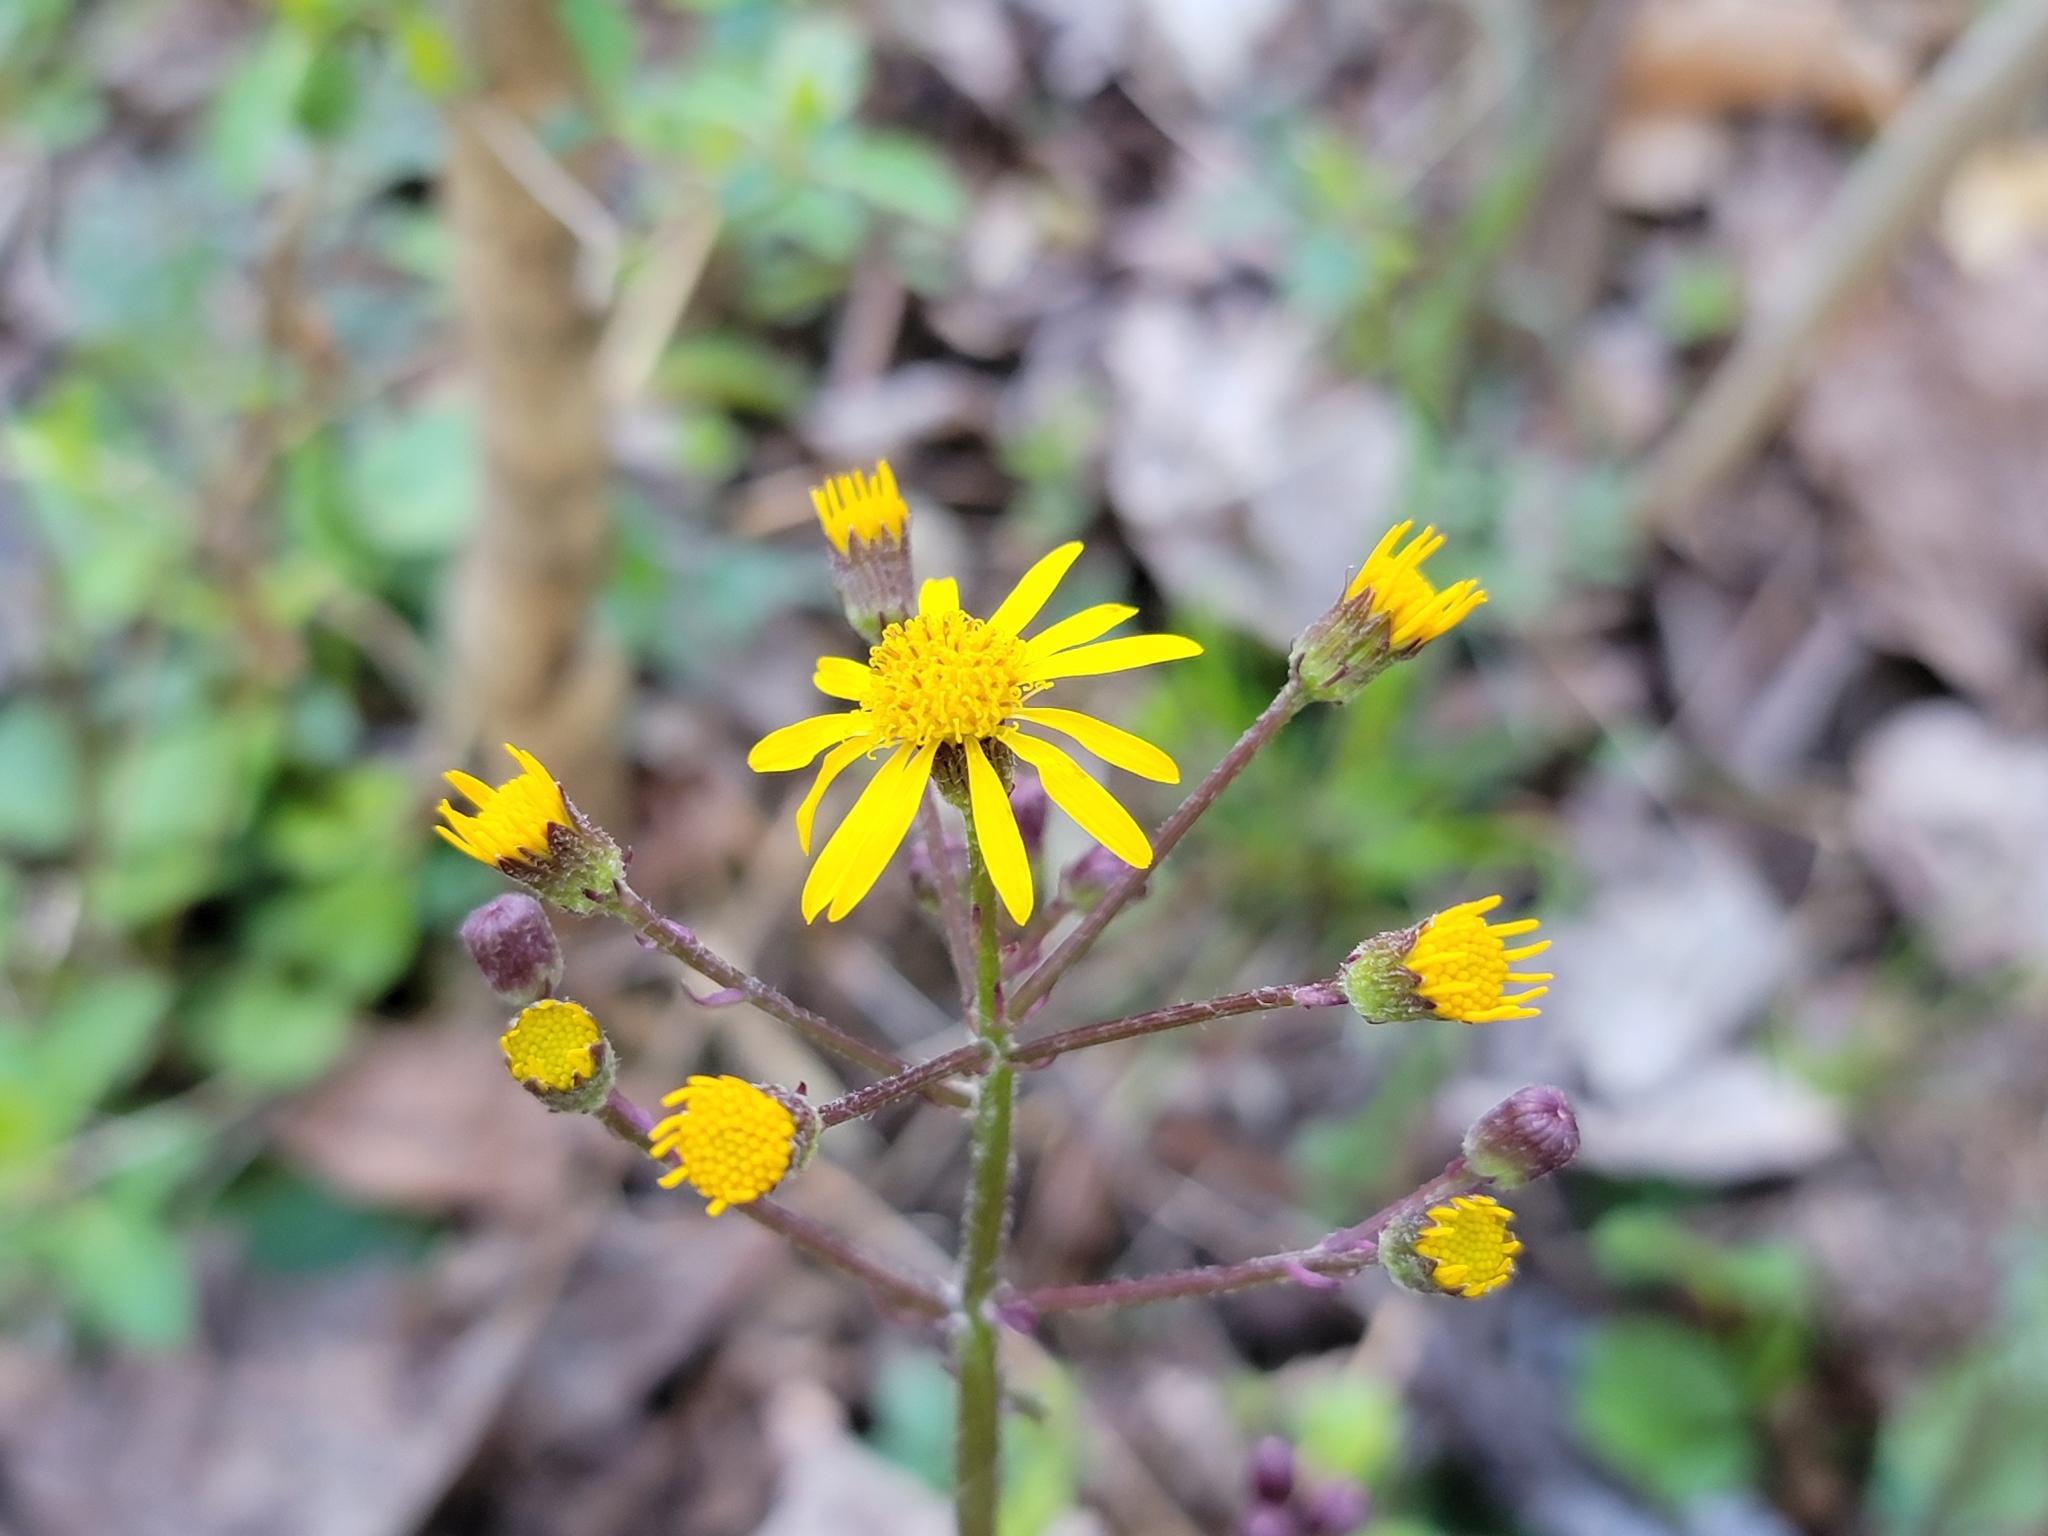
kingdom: Plantae
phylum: Tracheophyta
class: Magnoliopsida
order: Asterales
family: Asteraceae
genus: Packera
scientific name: Packera aurea
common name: Golden groundsel
